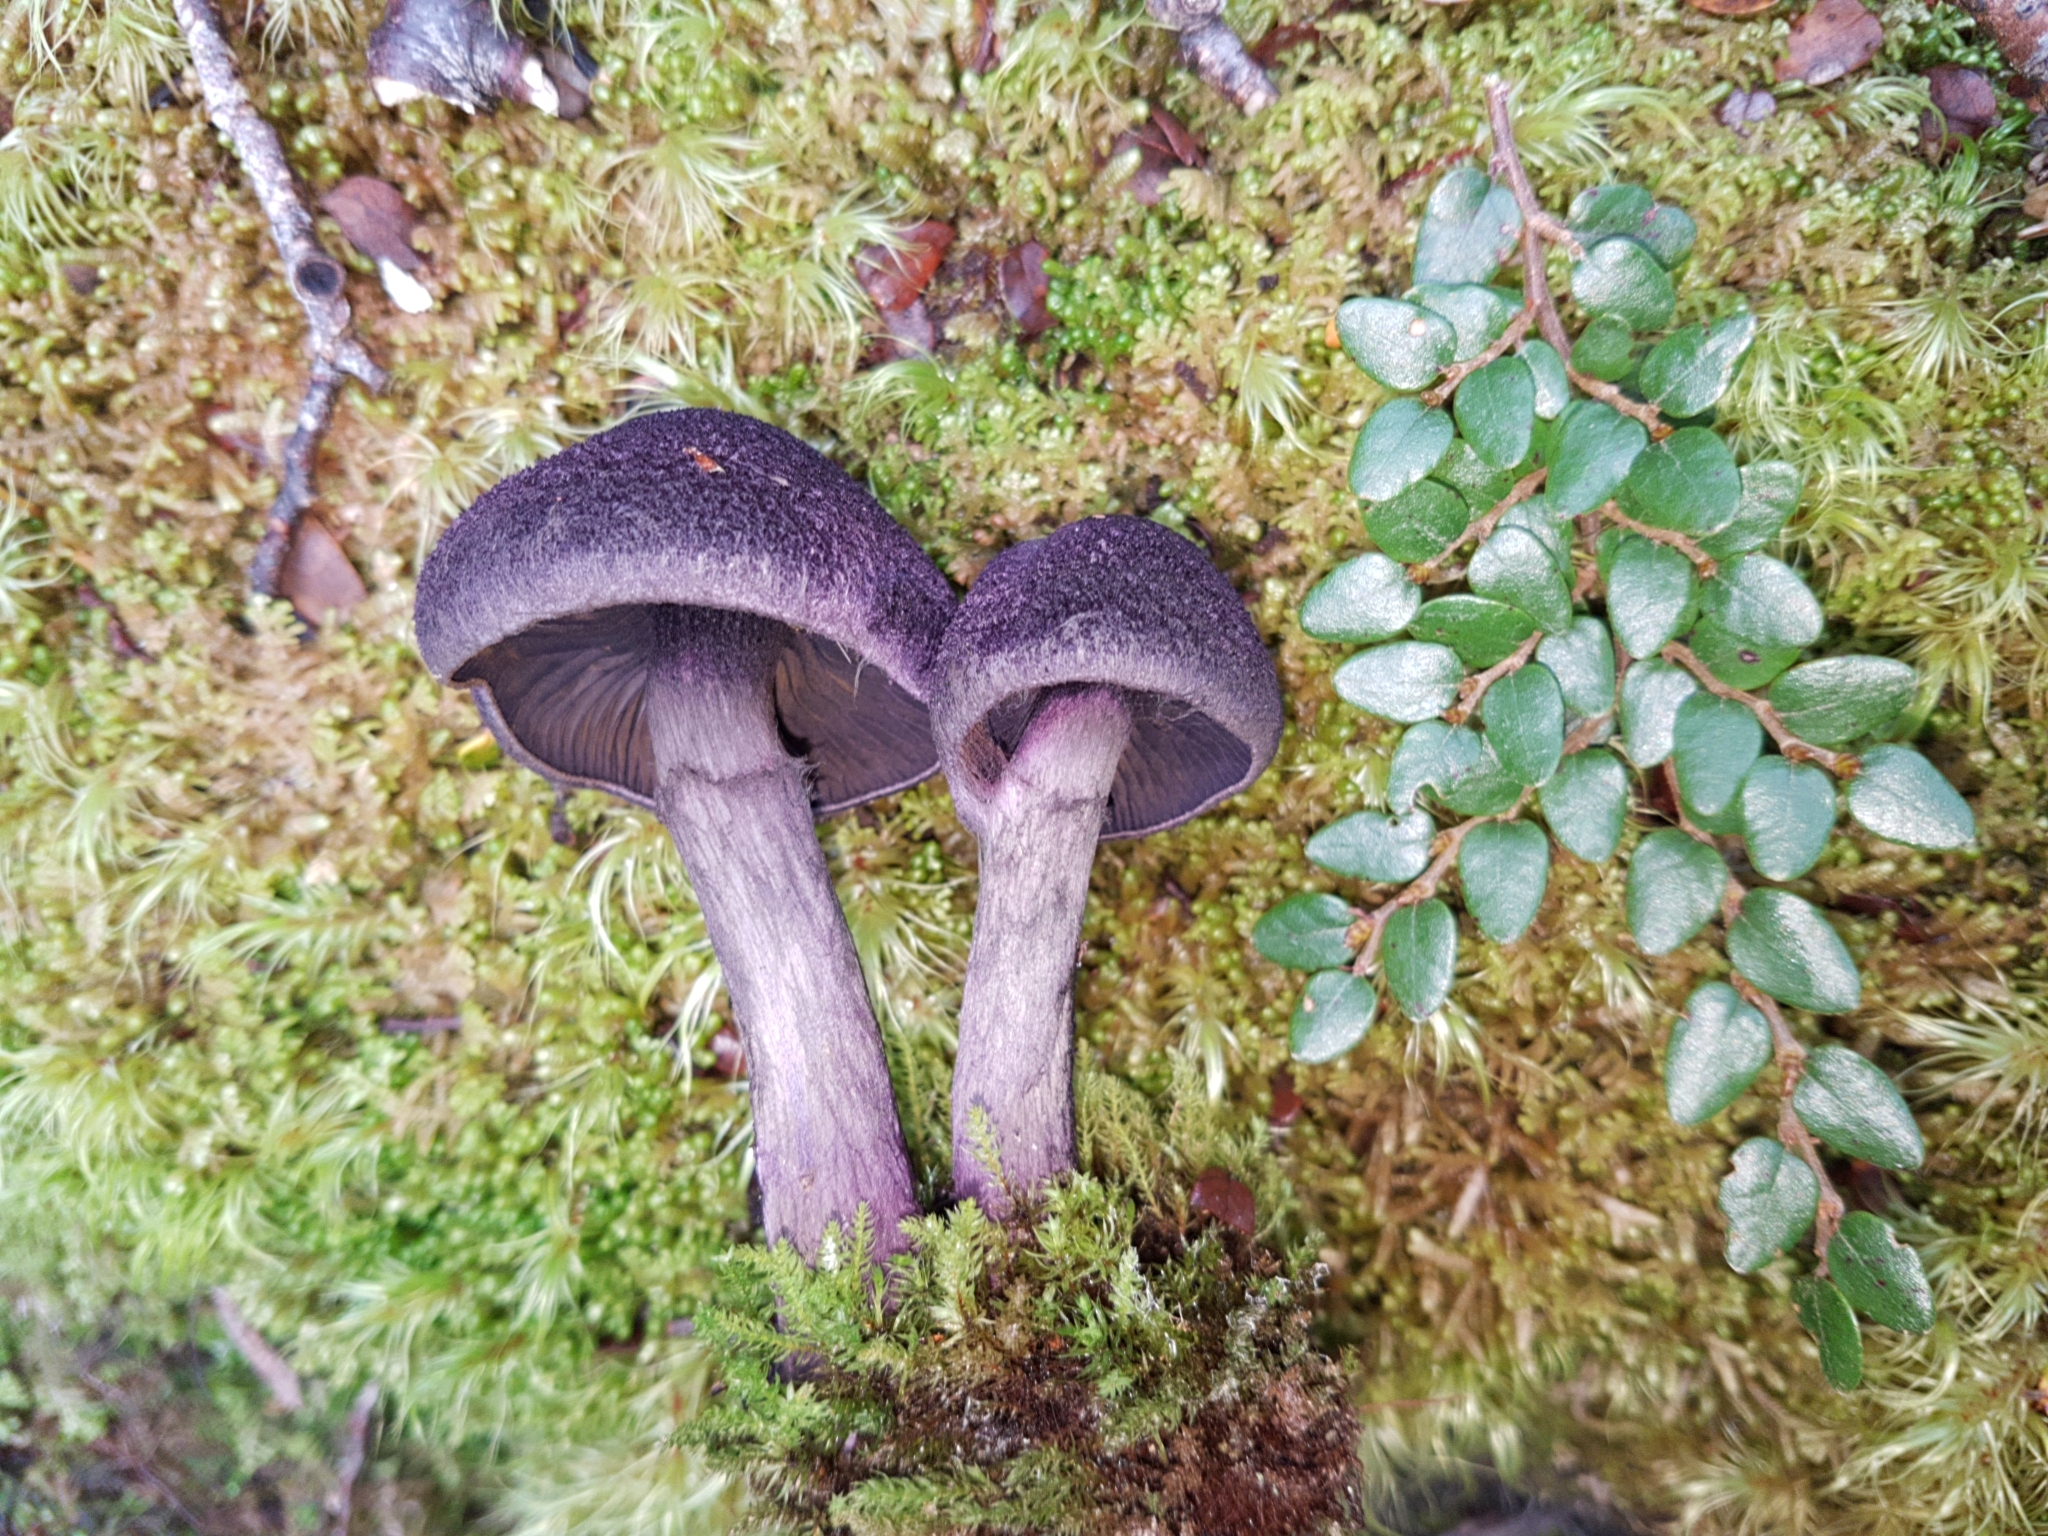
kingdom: Fungi
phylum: Basidiomycota
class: Agaricomycetes
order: Agaricales
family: Cortinariaceae
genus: Cortinarius
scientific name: Cortinarius carneipallidus
